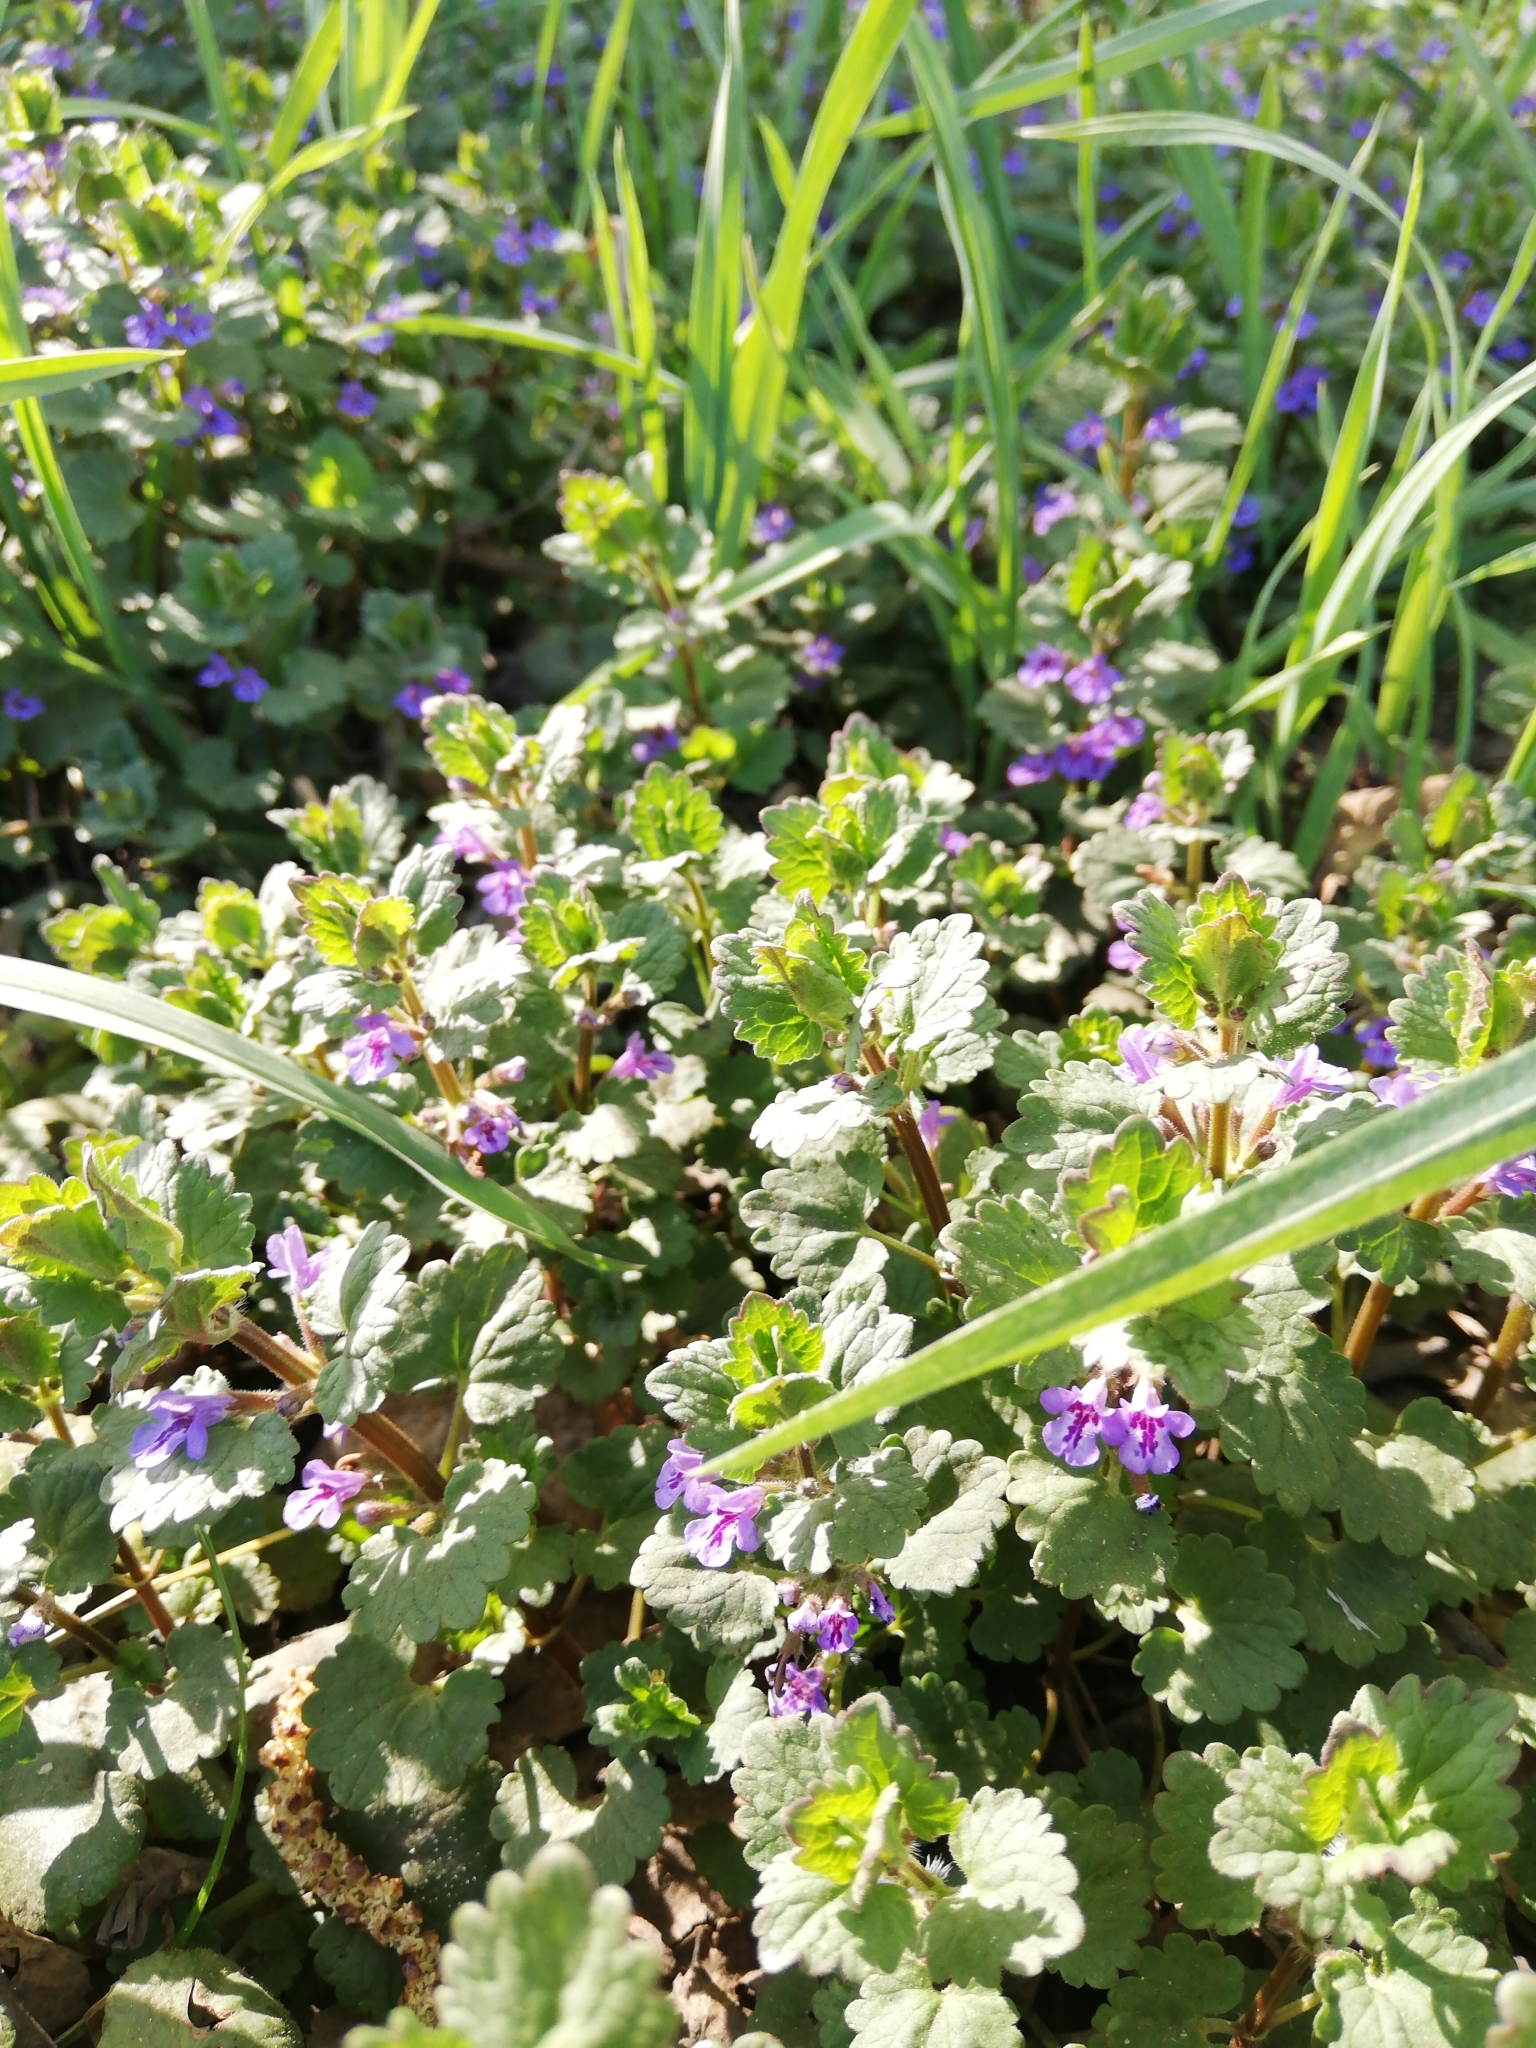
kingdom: Plantae
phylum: Tracheophyta
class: Magnoliopsida
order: Lamiales
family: Lamiaceae
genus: Glechoma
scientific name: Glechoma hederacea
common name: Ground ivy
